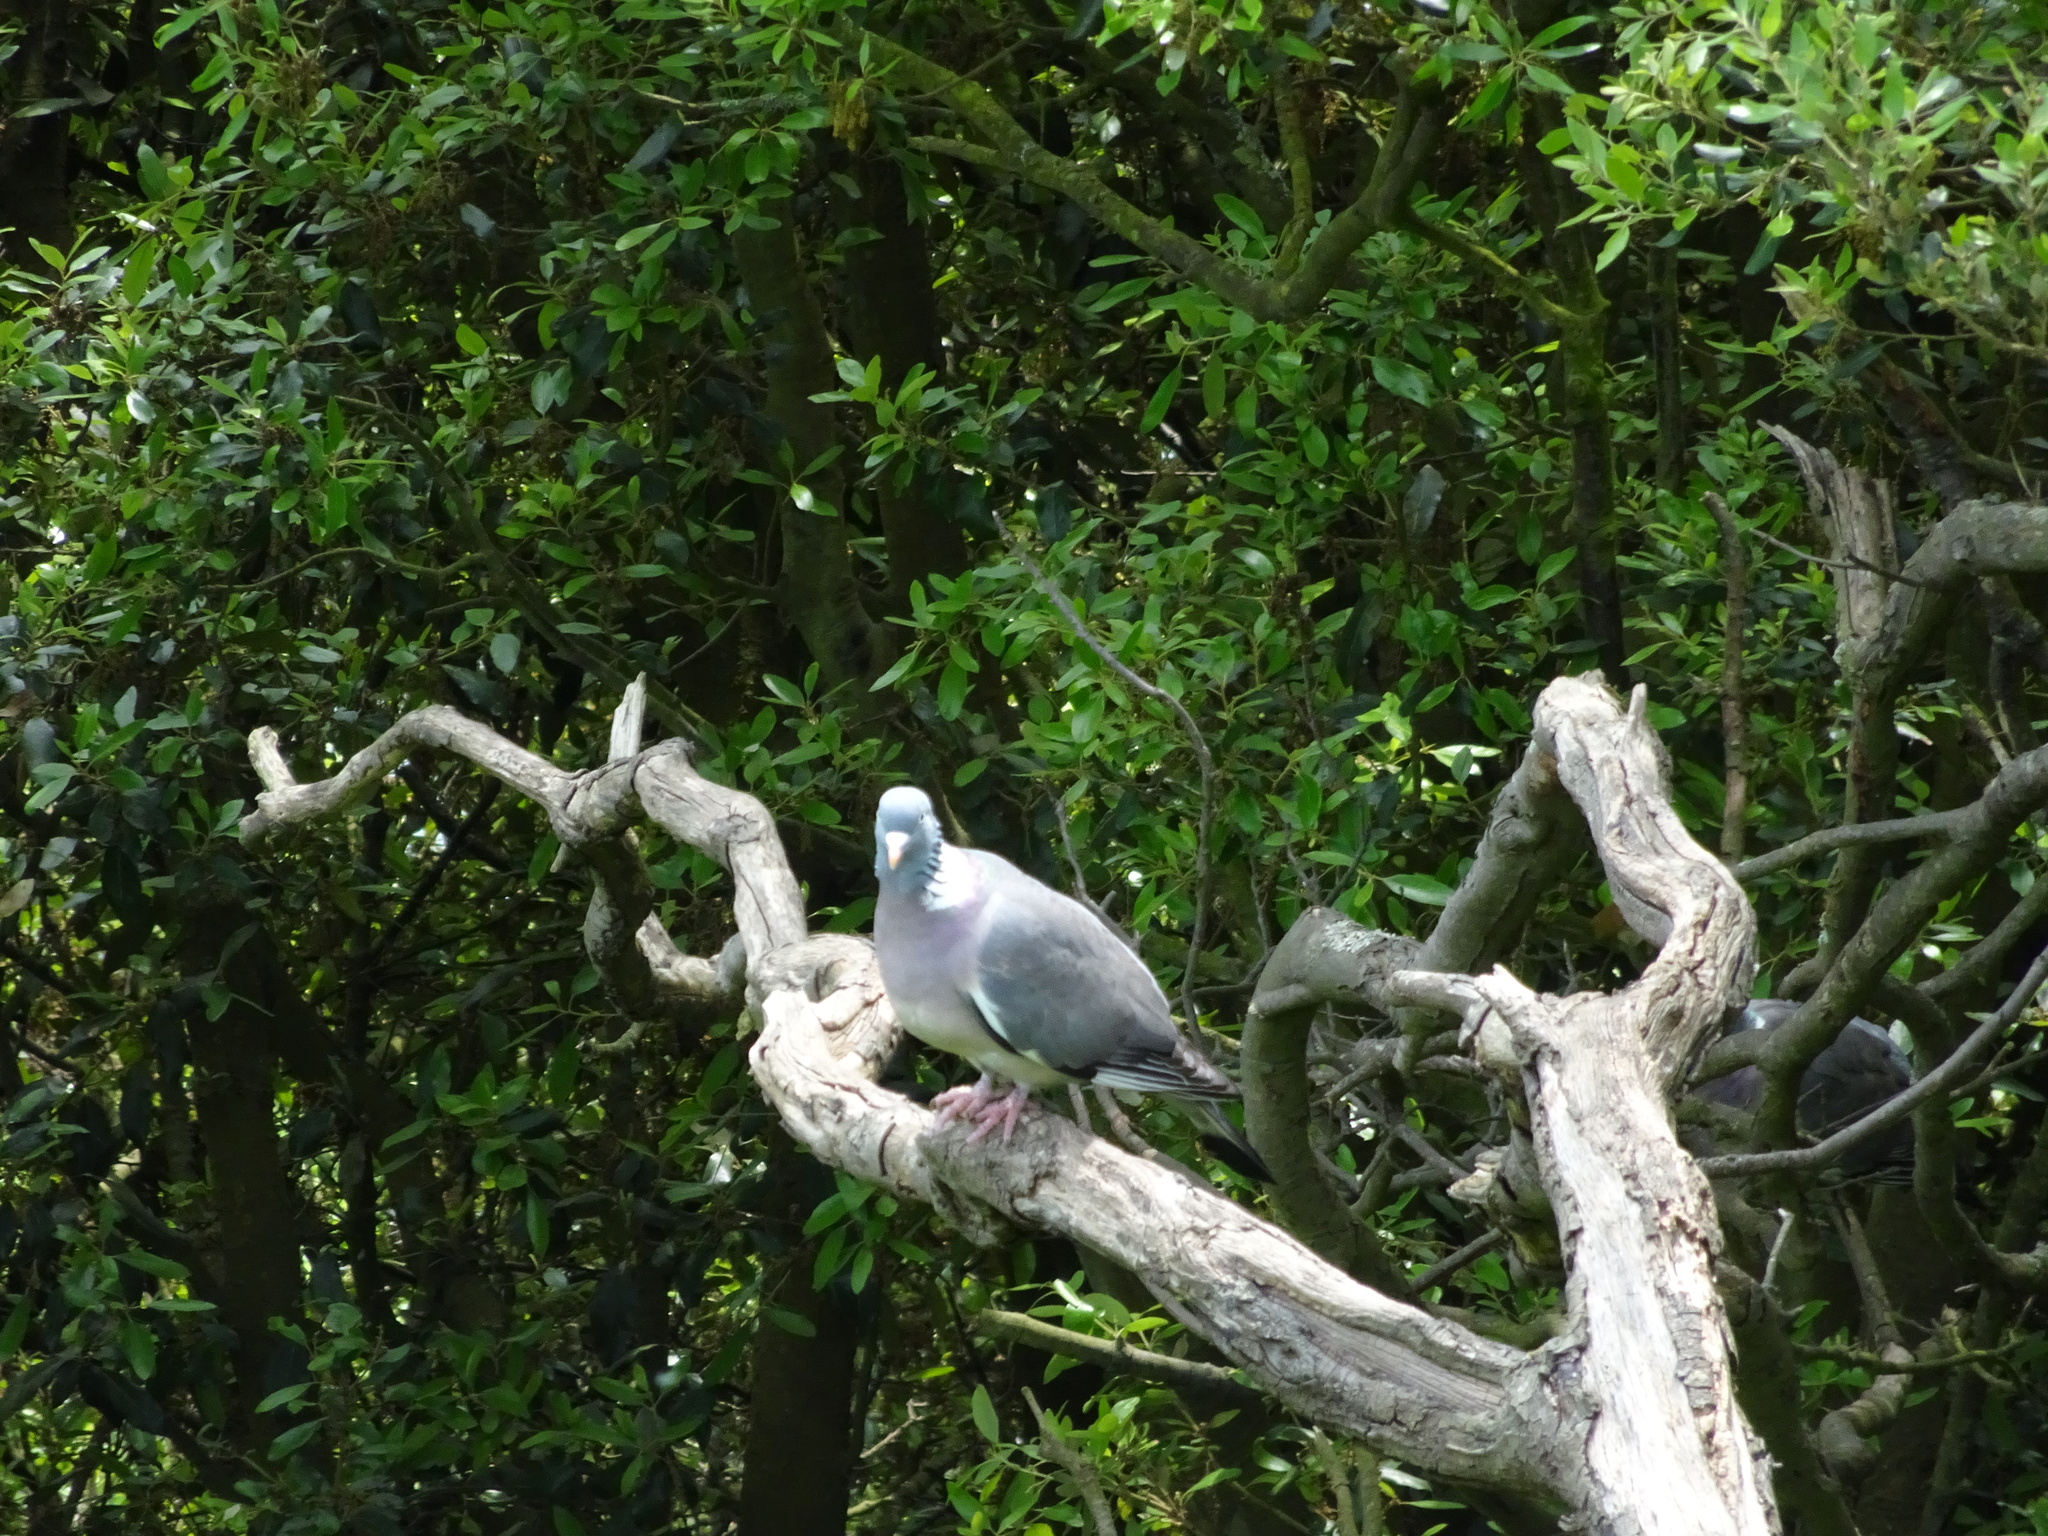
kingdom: Animalia
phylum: Chordata
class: Aves
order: Columbiformes
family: Columbidae
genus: Columba
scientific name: Columba palumbus
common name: Common wood pigeon
